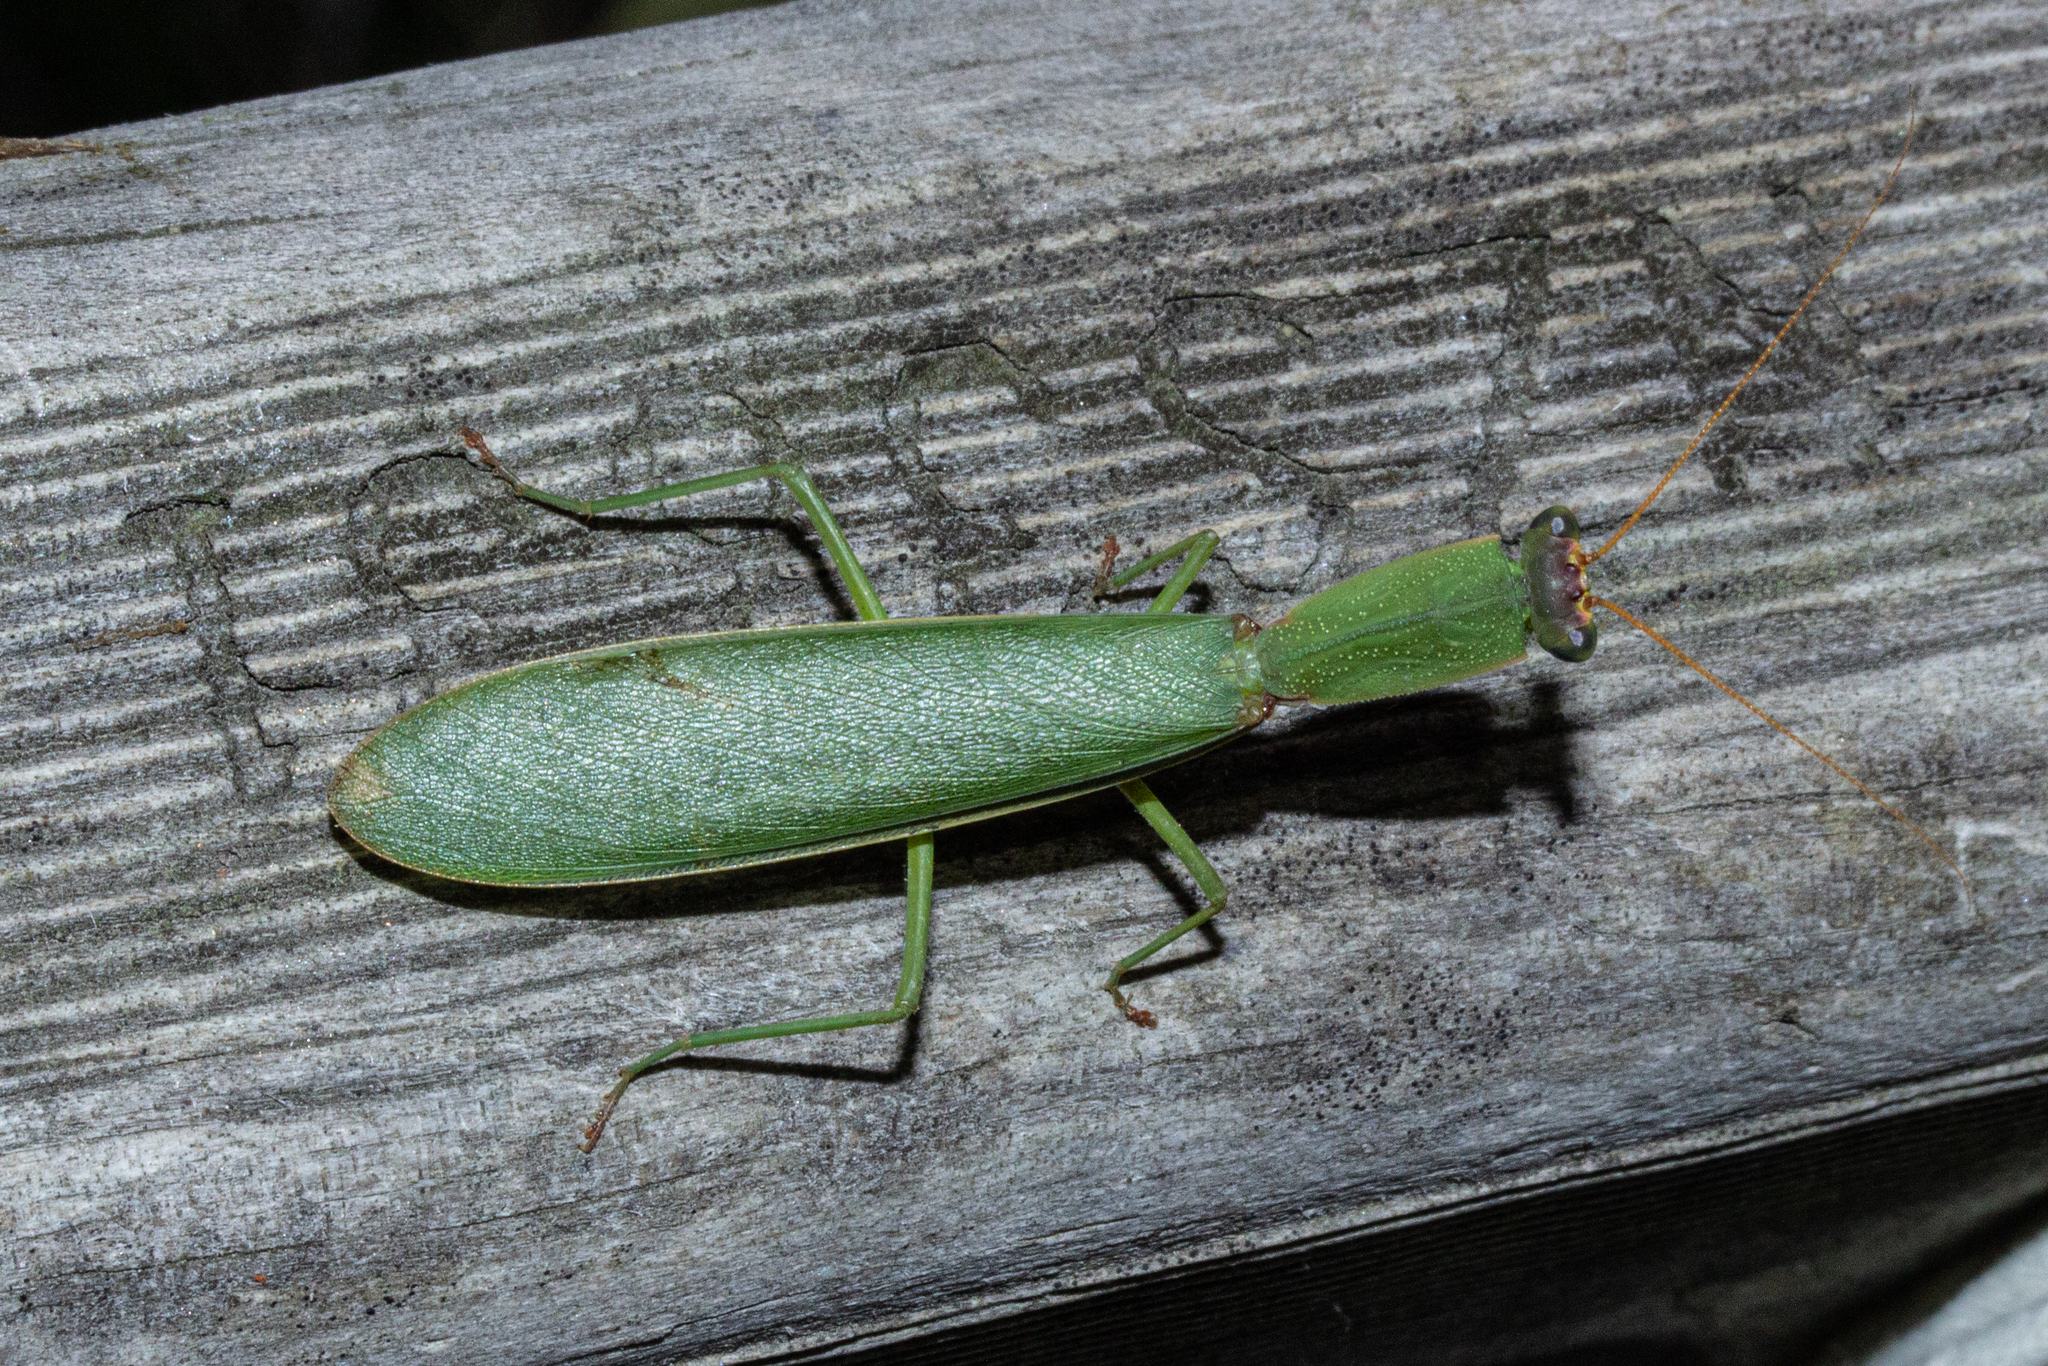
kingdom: Animalia
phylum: Arthropoda
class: Insecta
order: Mantodea
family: Mantidae
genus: Orthodera
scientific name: Orthodera novaezealandiae
